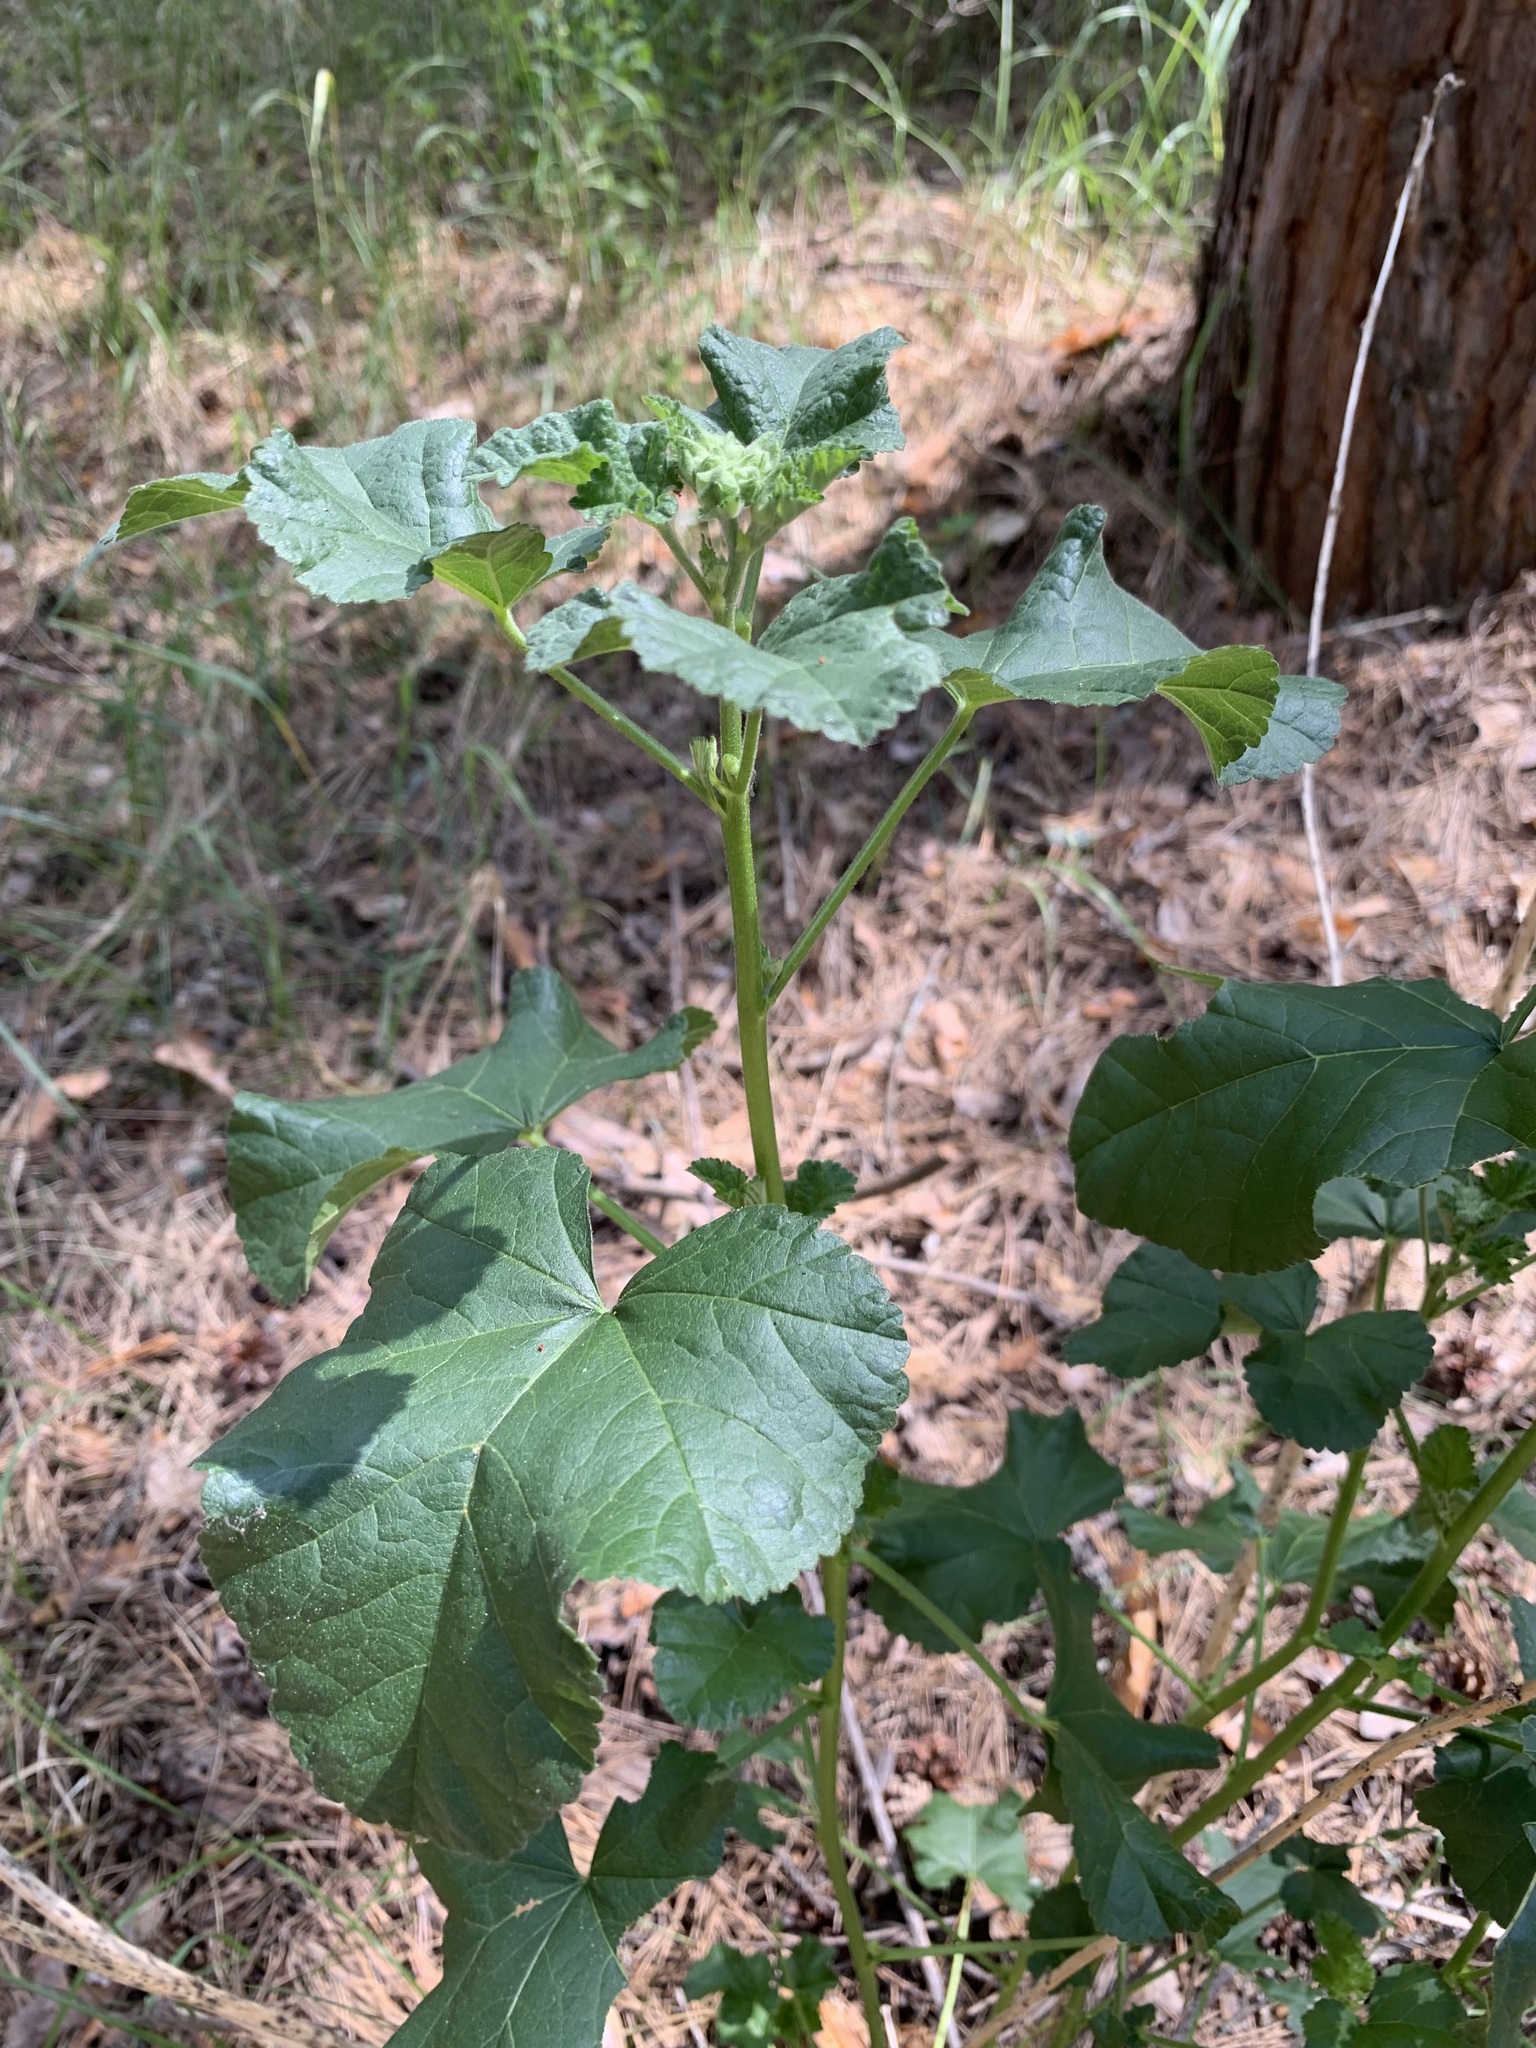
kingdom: Plantae
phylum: Tracheophyta
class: Magnoliopsida
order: Malvales
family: Malvaceae
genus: Malva
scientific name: Malva thuringiaca
